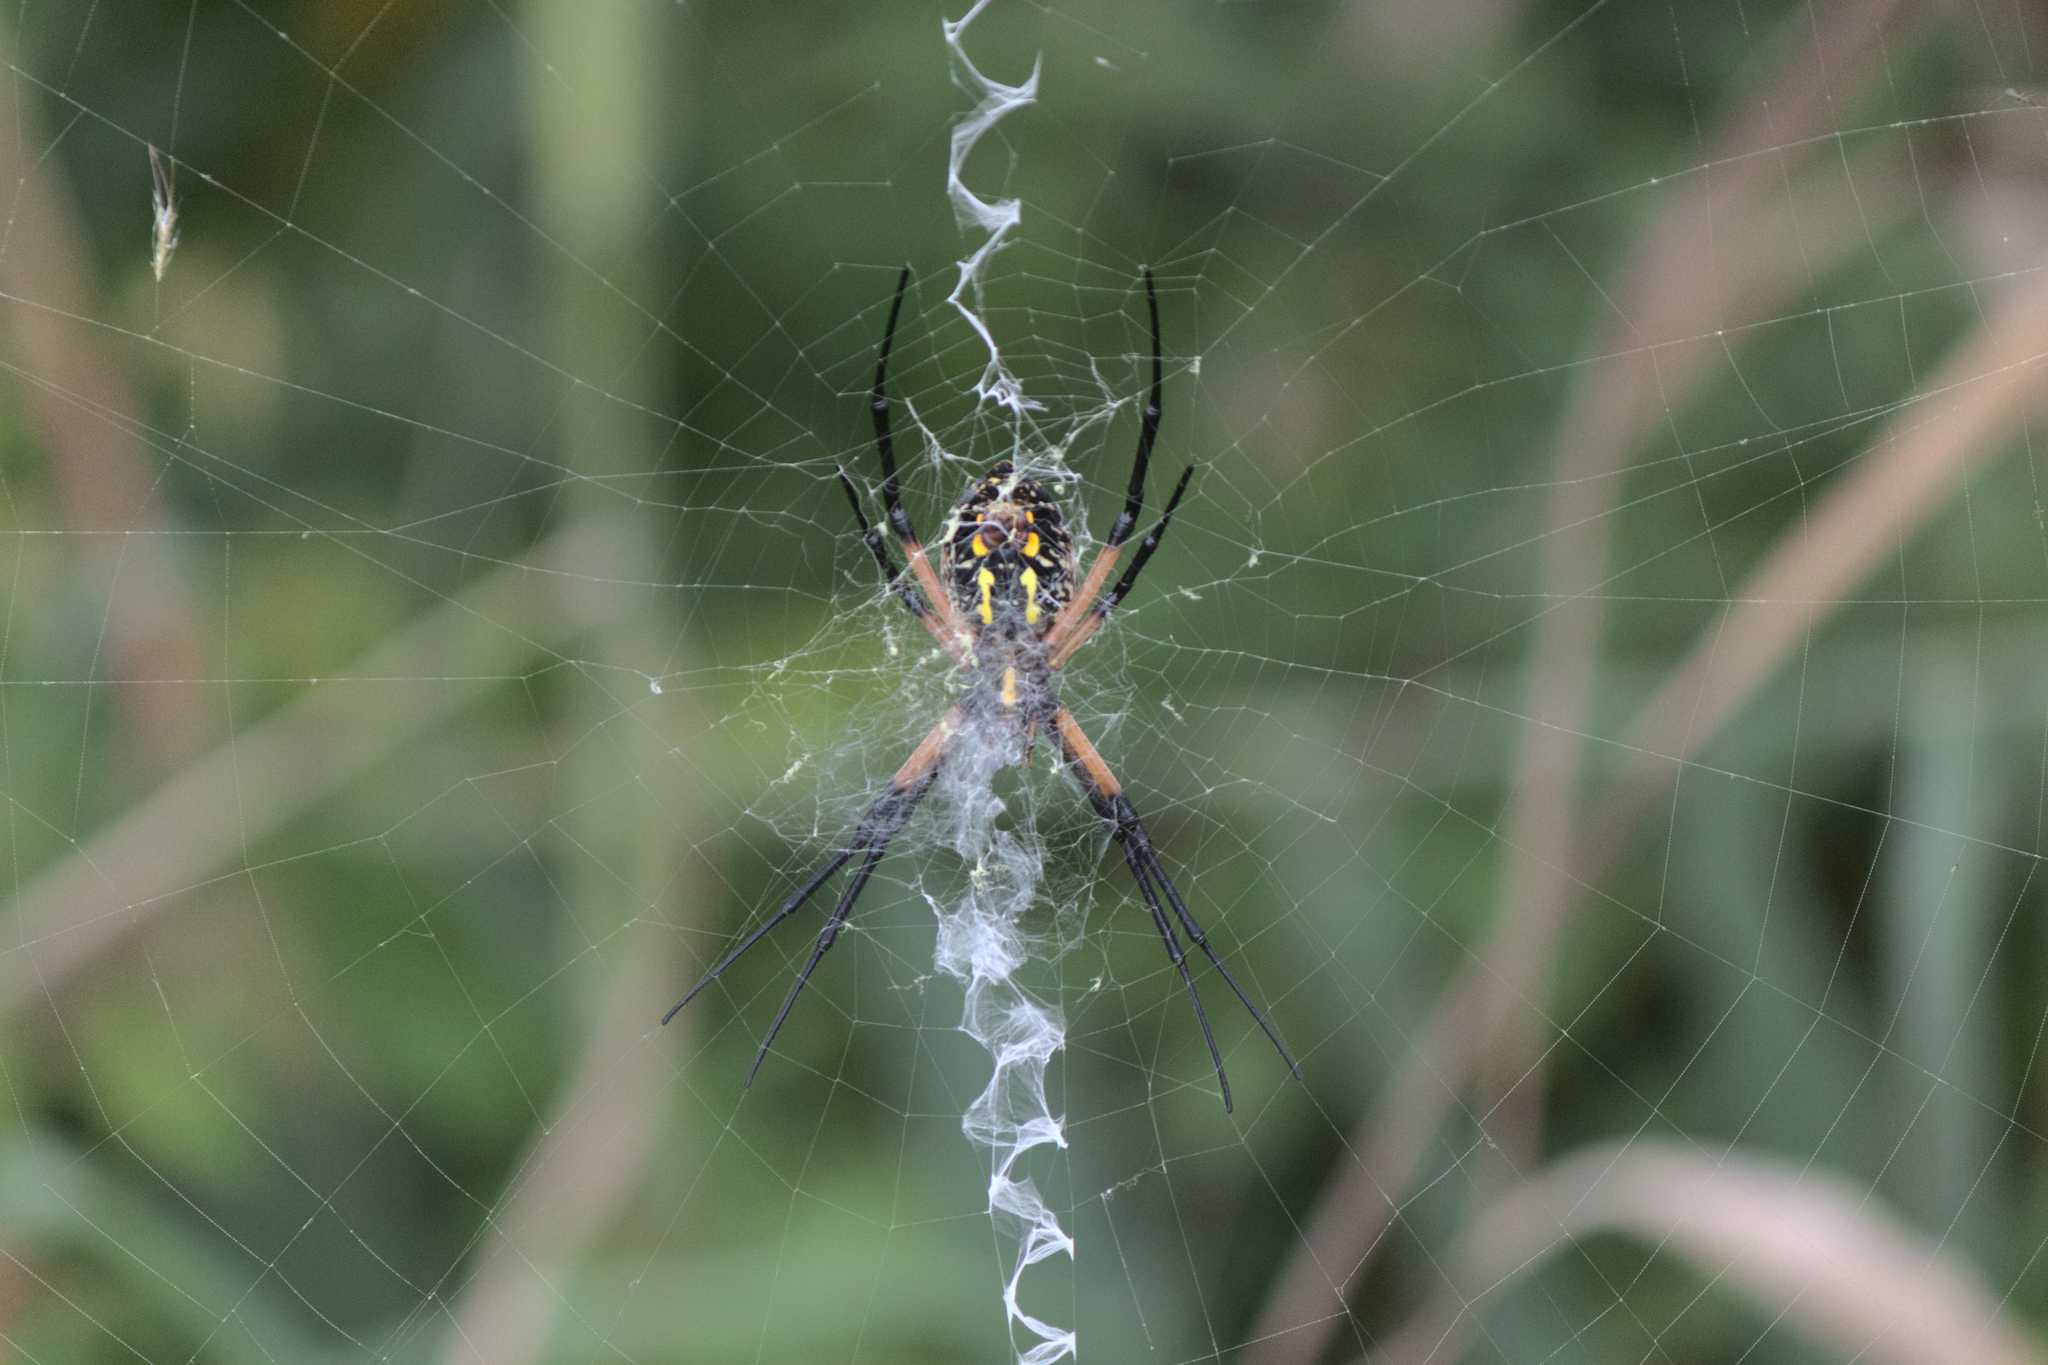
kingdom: Animalia
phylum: Arthropoda
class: Arachnida
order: Araneae
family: Araneidae
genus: Argiope
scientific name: Argiope aurantia
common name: Orb weavers
